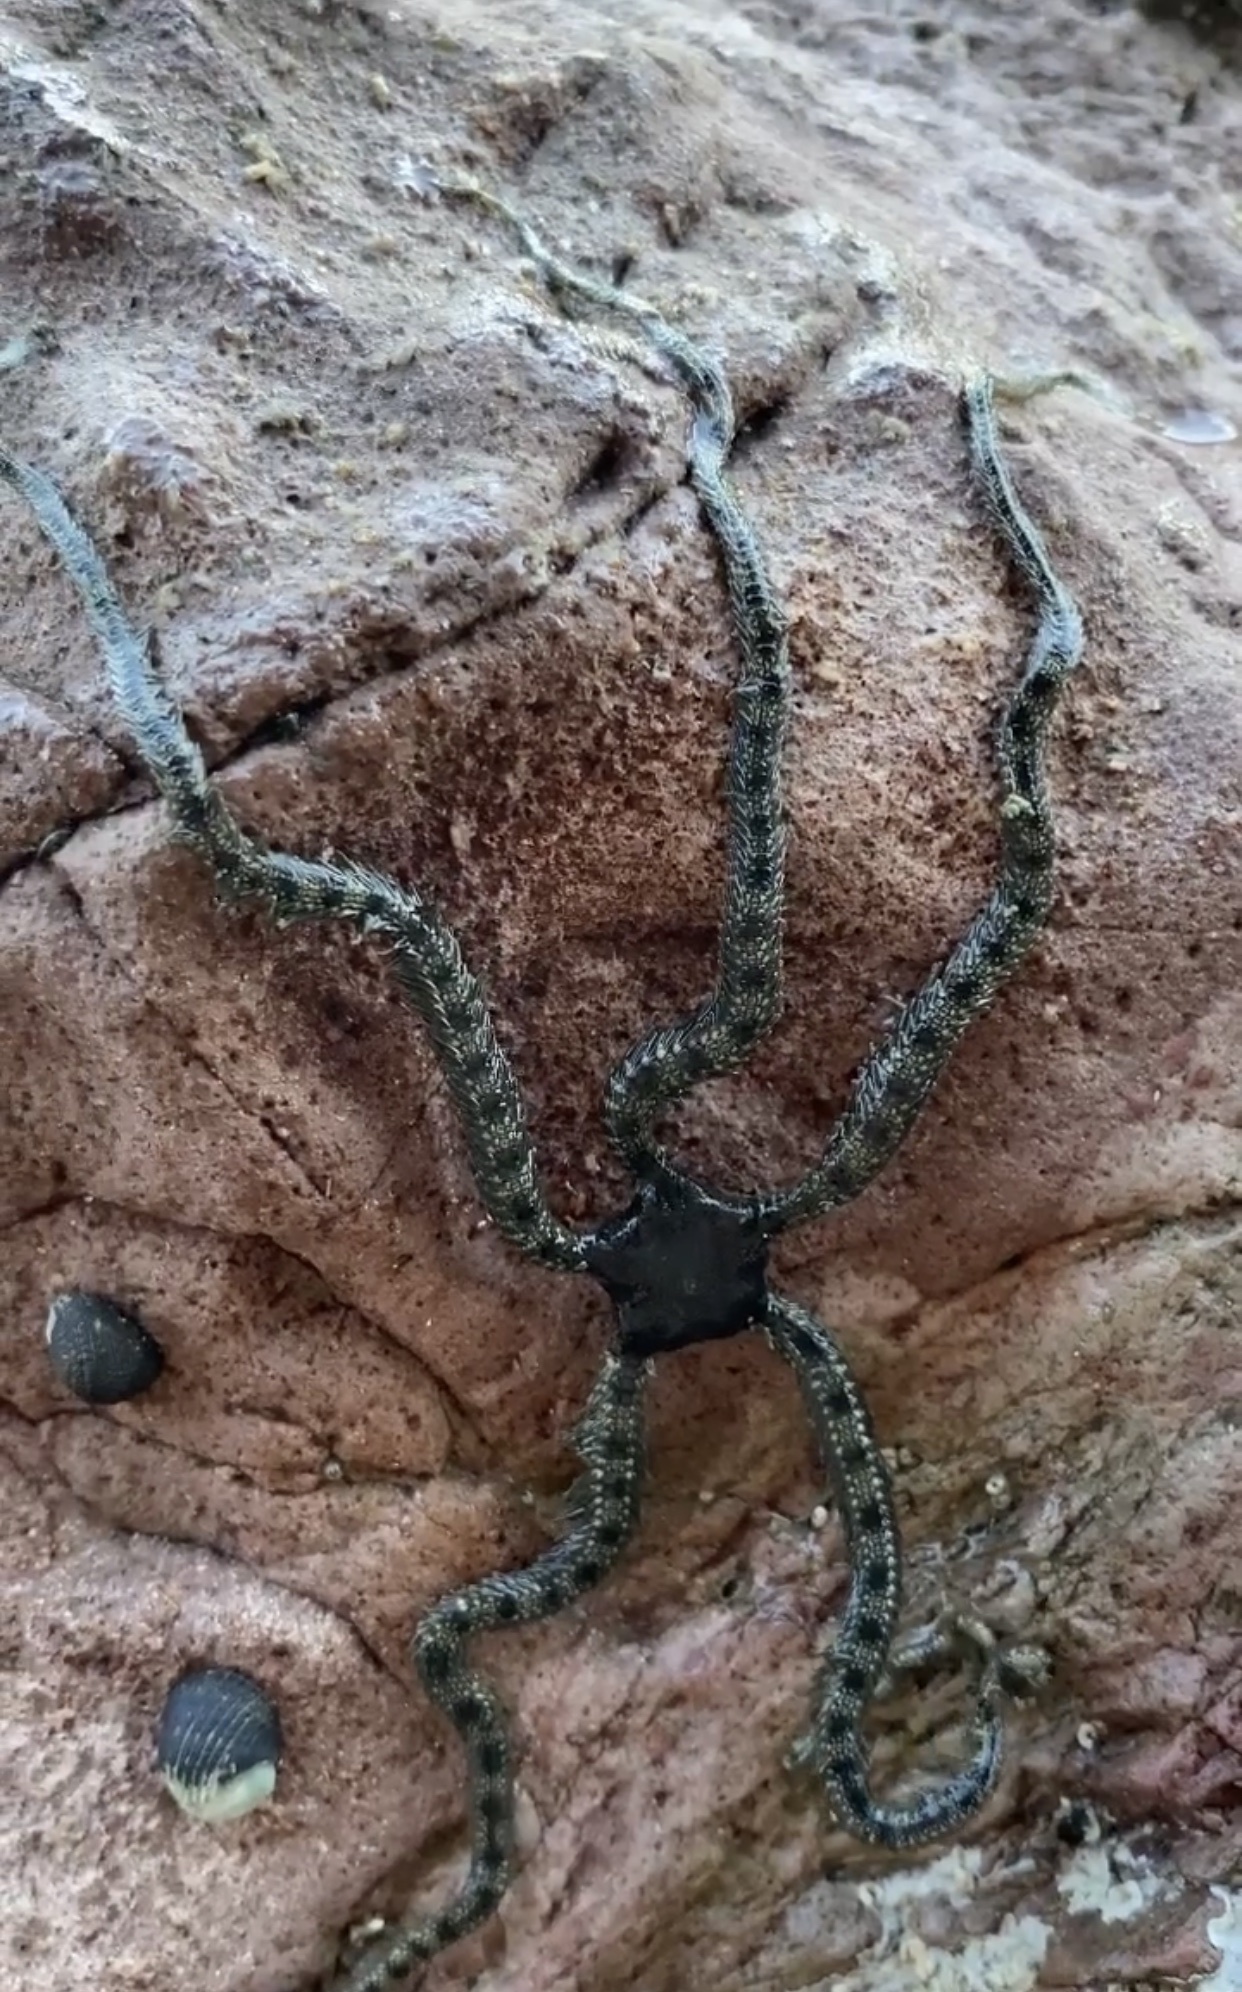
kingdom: Animalia
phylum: Echinodermata
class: Ophiuroidea
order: Ophiacanthida
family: Ophiocomidae
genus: Ophiocomella
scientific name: Ophiocomella alexandri
